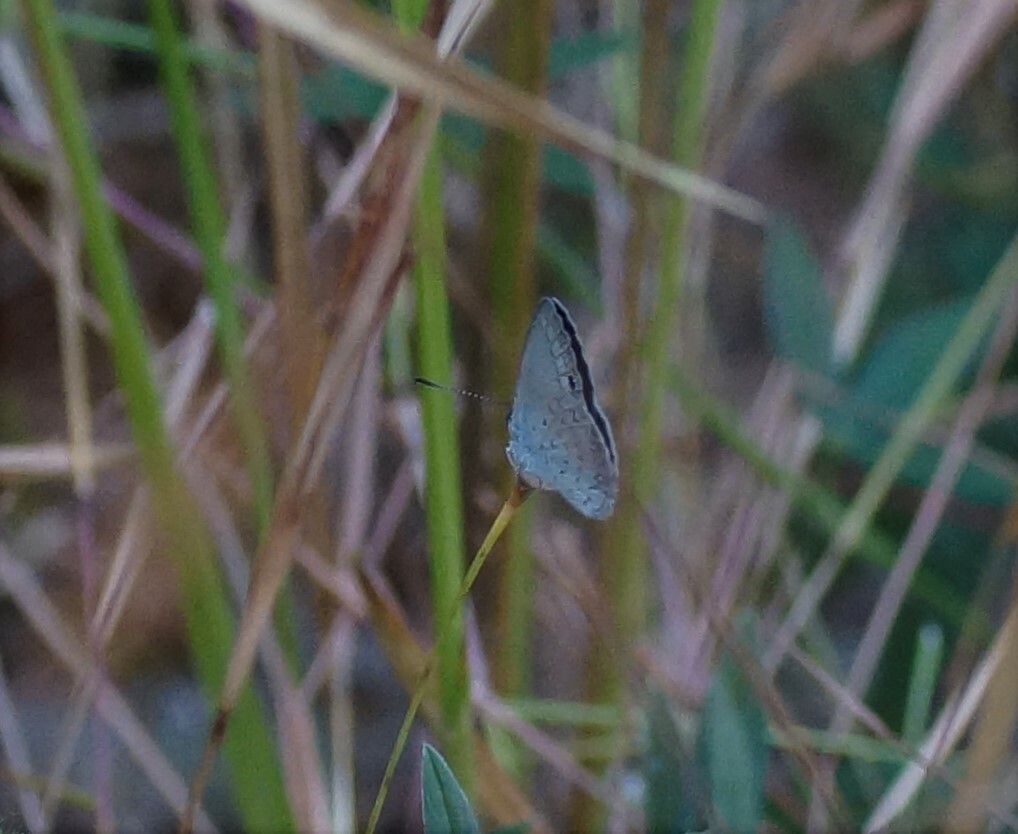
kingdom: Animalia
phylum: Arthropoda
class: Insecta
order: Lepidoptera
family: Lycaenidae
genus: Candalides
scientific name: Candalides
